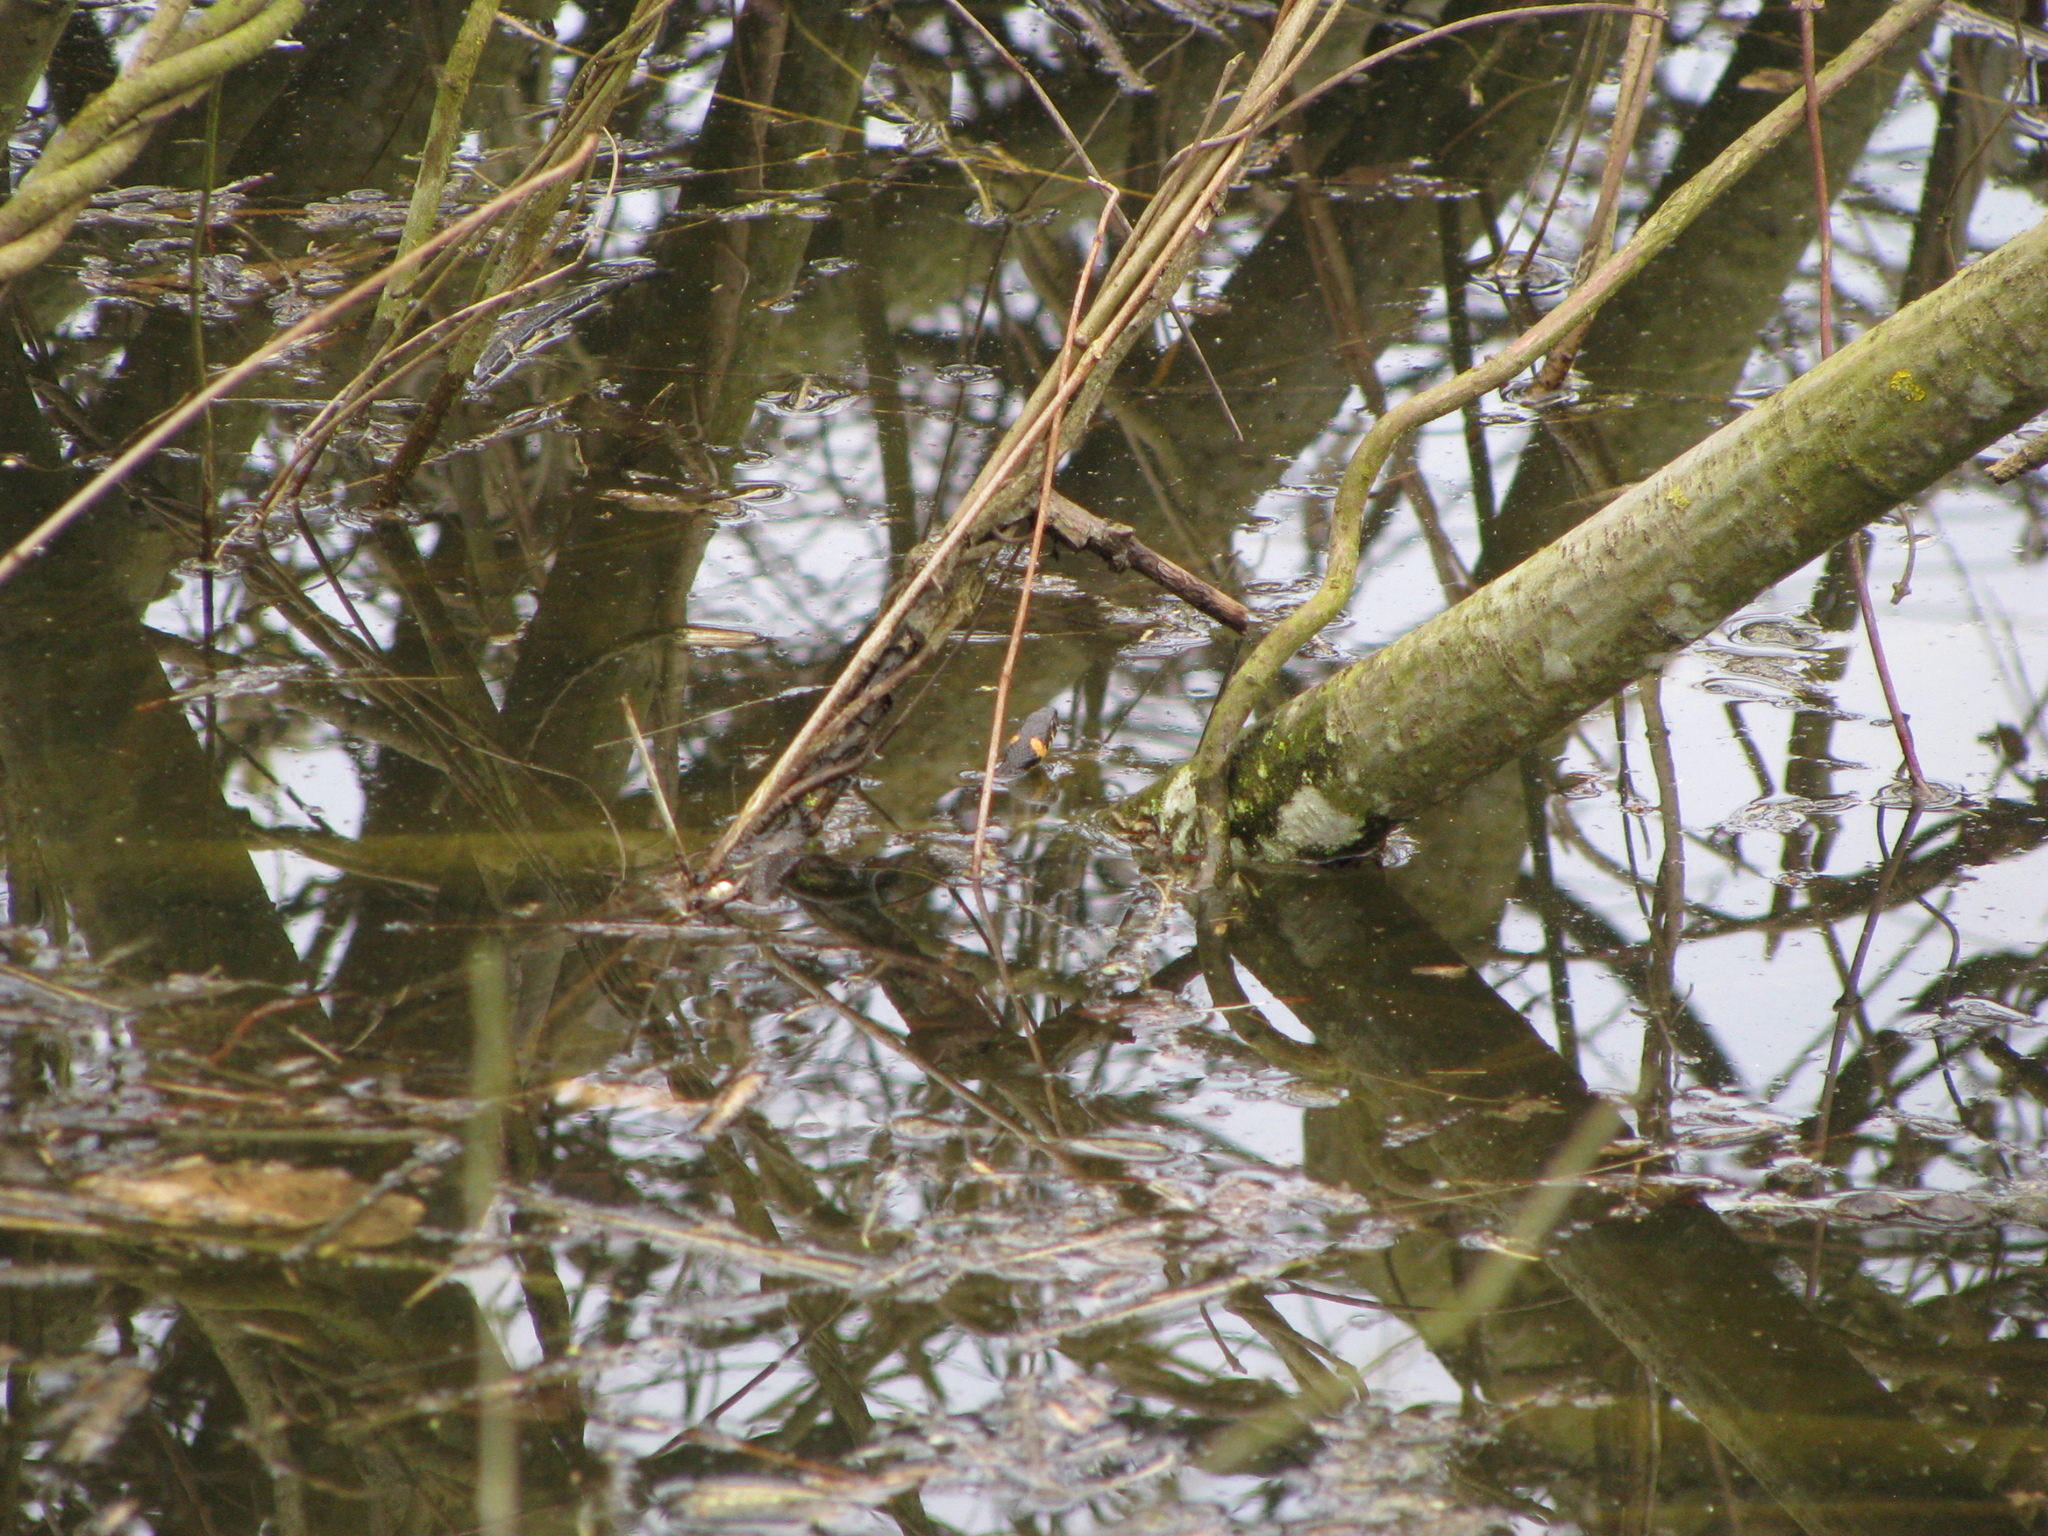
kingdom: Animalia
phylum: Chordata
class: Squamata
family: Colubridae
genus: Natrix
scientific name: Natrix natrix
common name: Grass snake
